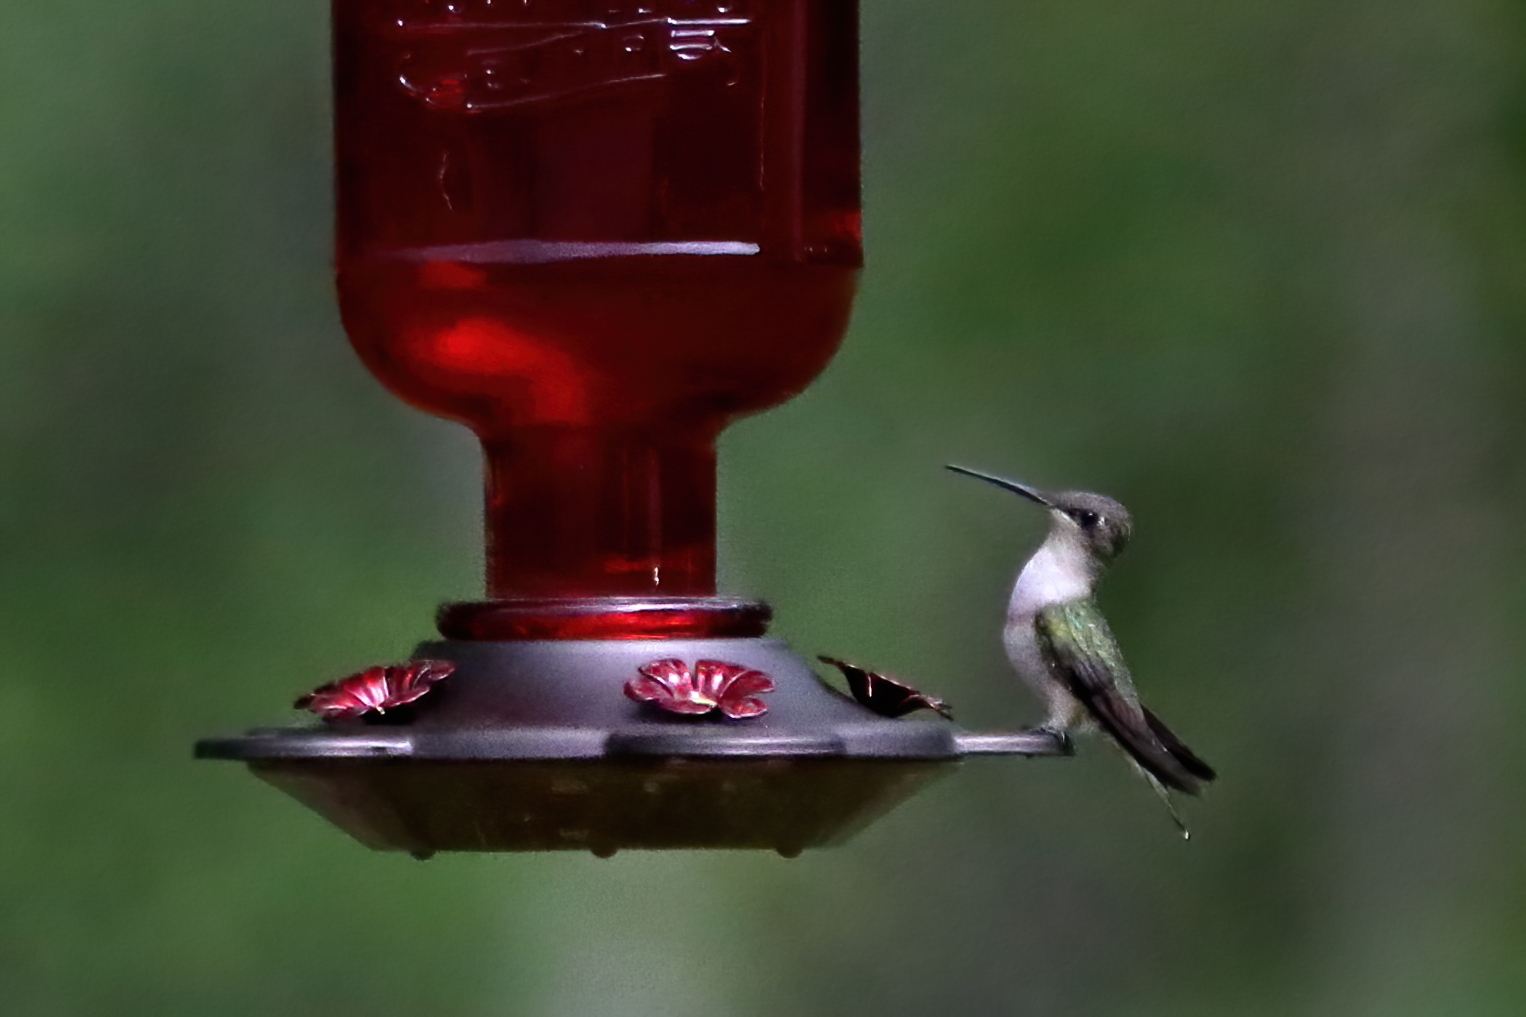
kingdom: Animalia
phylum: Chordata
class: Aves
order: Apodiformes
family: Trochilidae
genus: Archilochus
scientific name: Archilochus colubris
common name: Ruby-throated hummingbird
